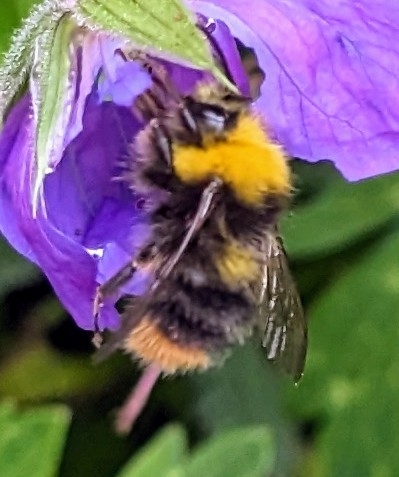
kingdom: Animalia
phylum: Arthropoda
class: Insecta
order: Hymenoptera
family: Apidae
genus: Bombus
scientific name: Bombus pratorum
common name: Early humble-bee
